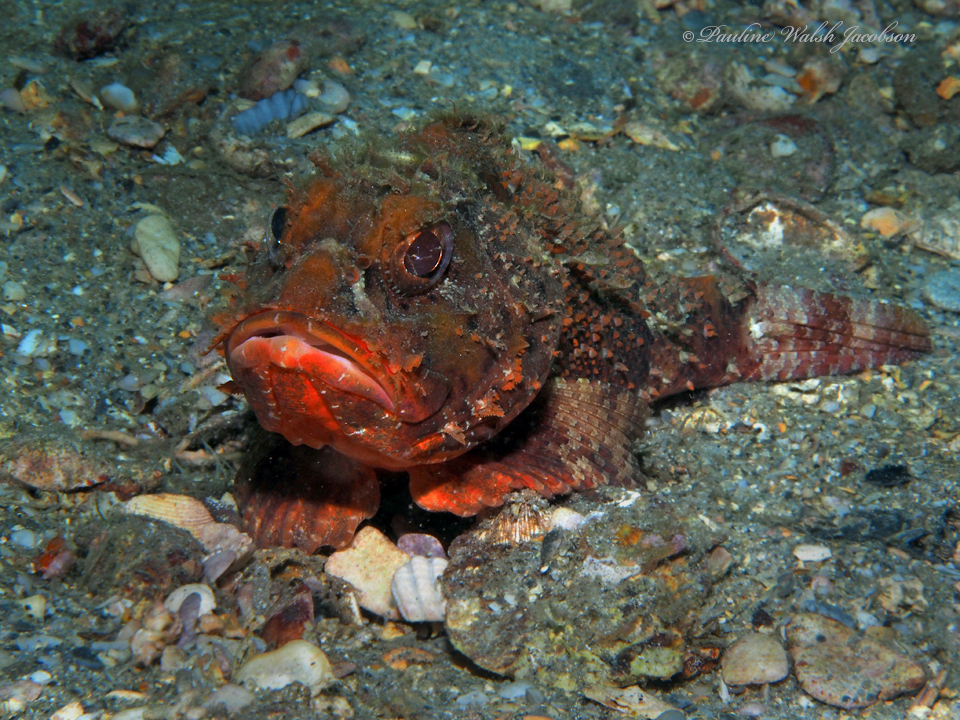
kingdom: Animalia
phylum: Chordata
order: Scorpaeniformes
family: Scorpaenidae
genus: Scorpaena
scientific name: Scorpaena brasiliensis
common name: Barbfish
